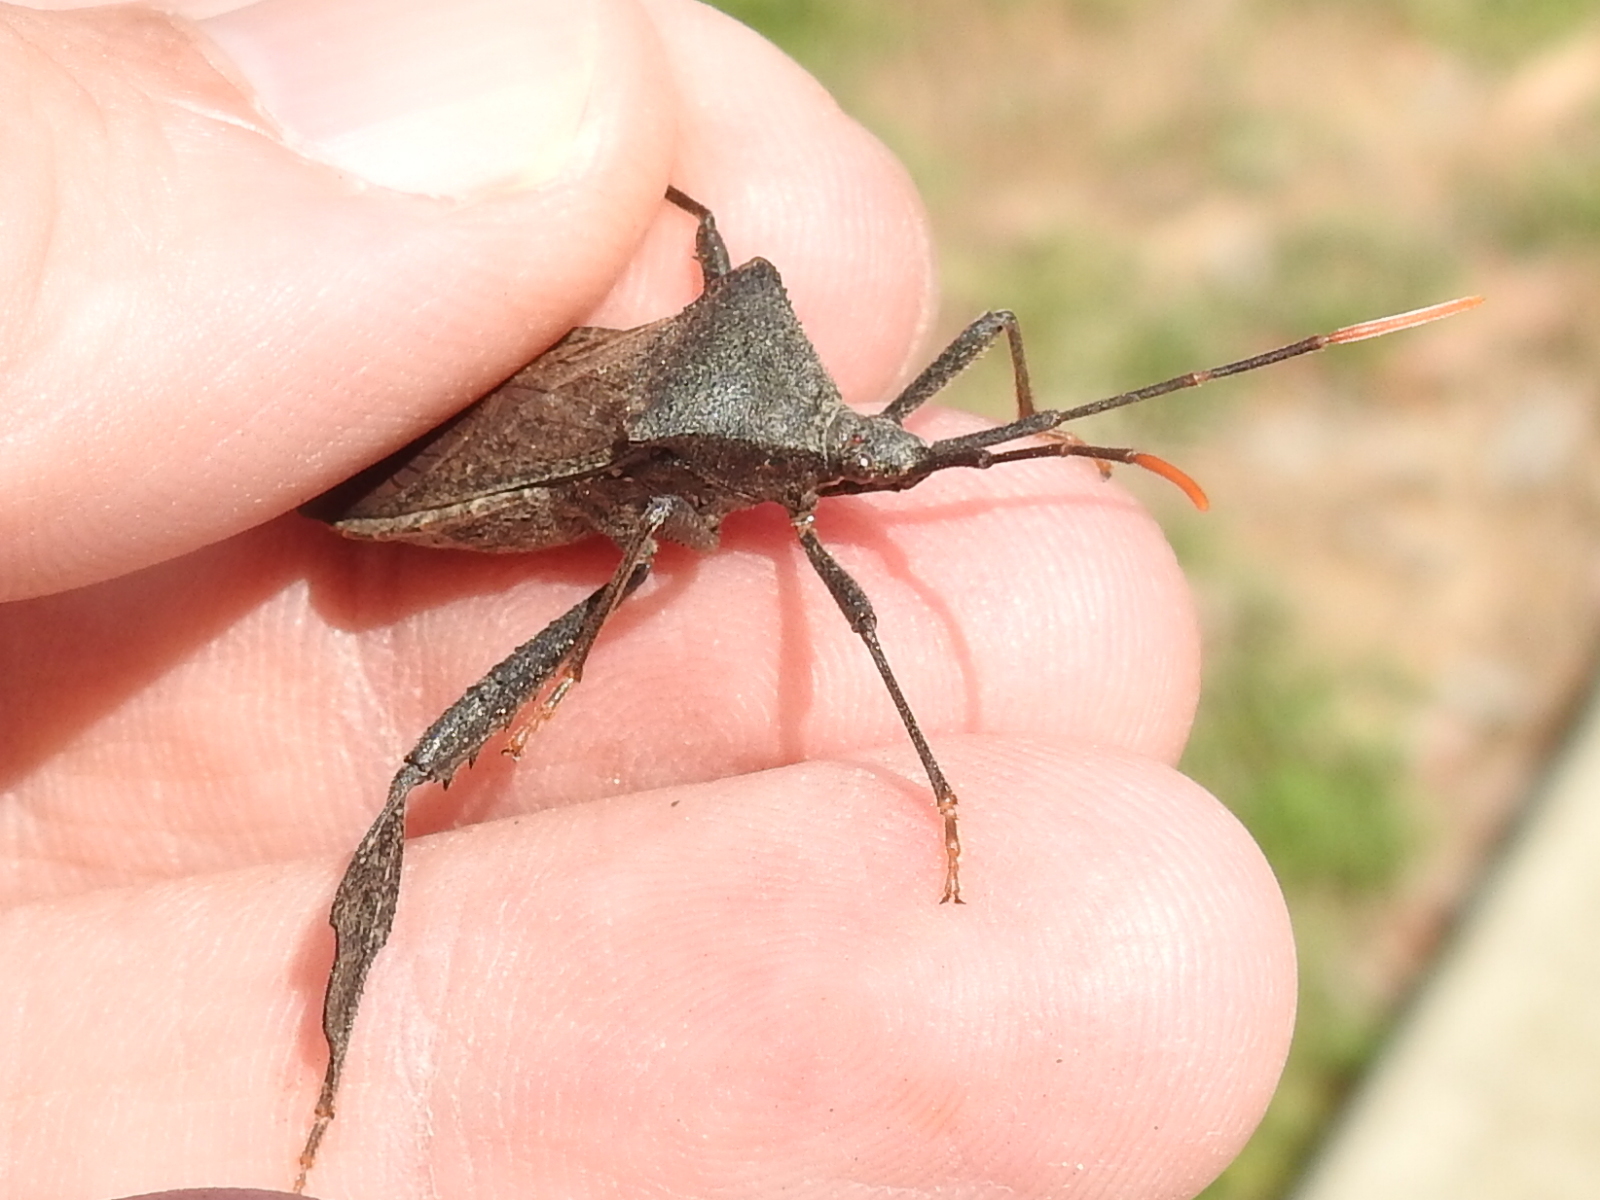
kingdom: Animalia
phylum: Arthropoda
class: Insecta
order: Hemiptera
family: Coreidae
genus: Acanthocephala
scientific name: Acanthocephala terminalis
